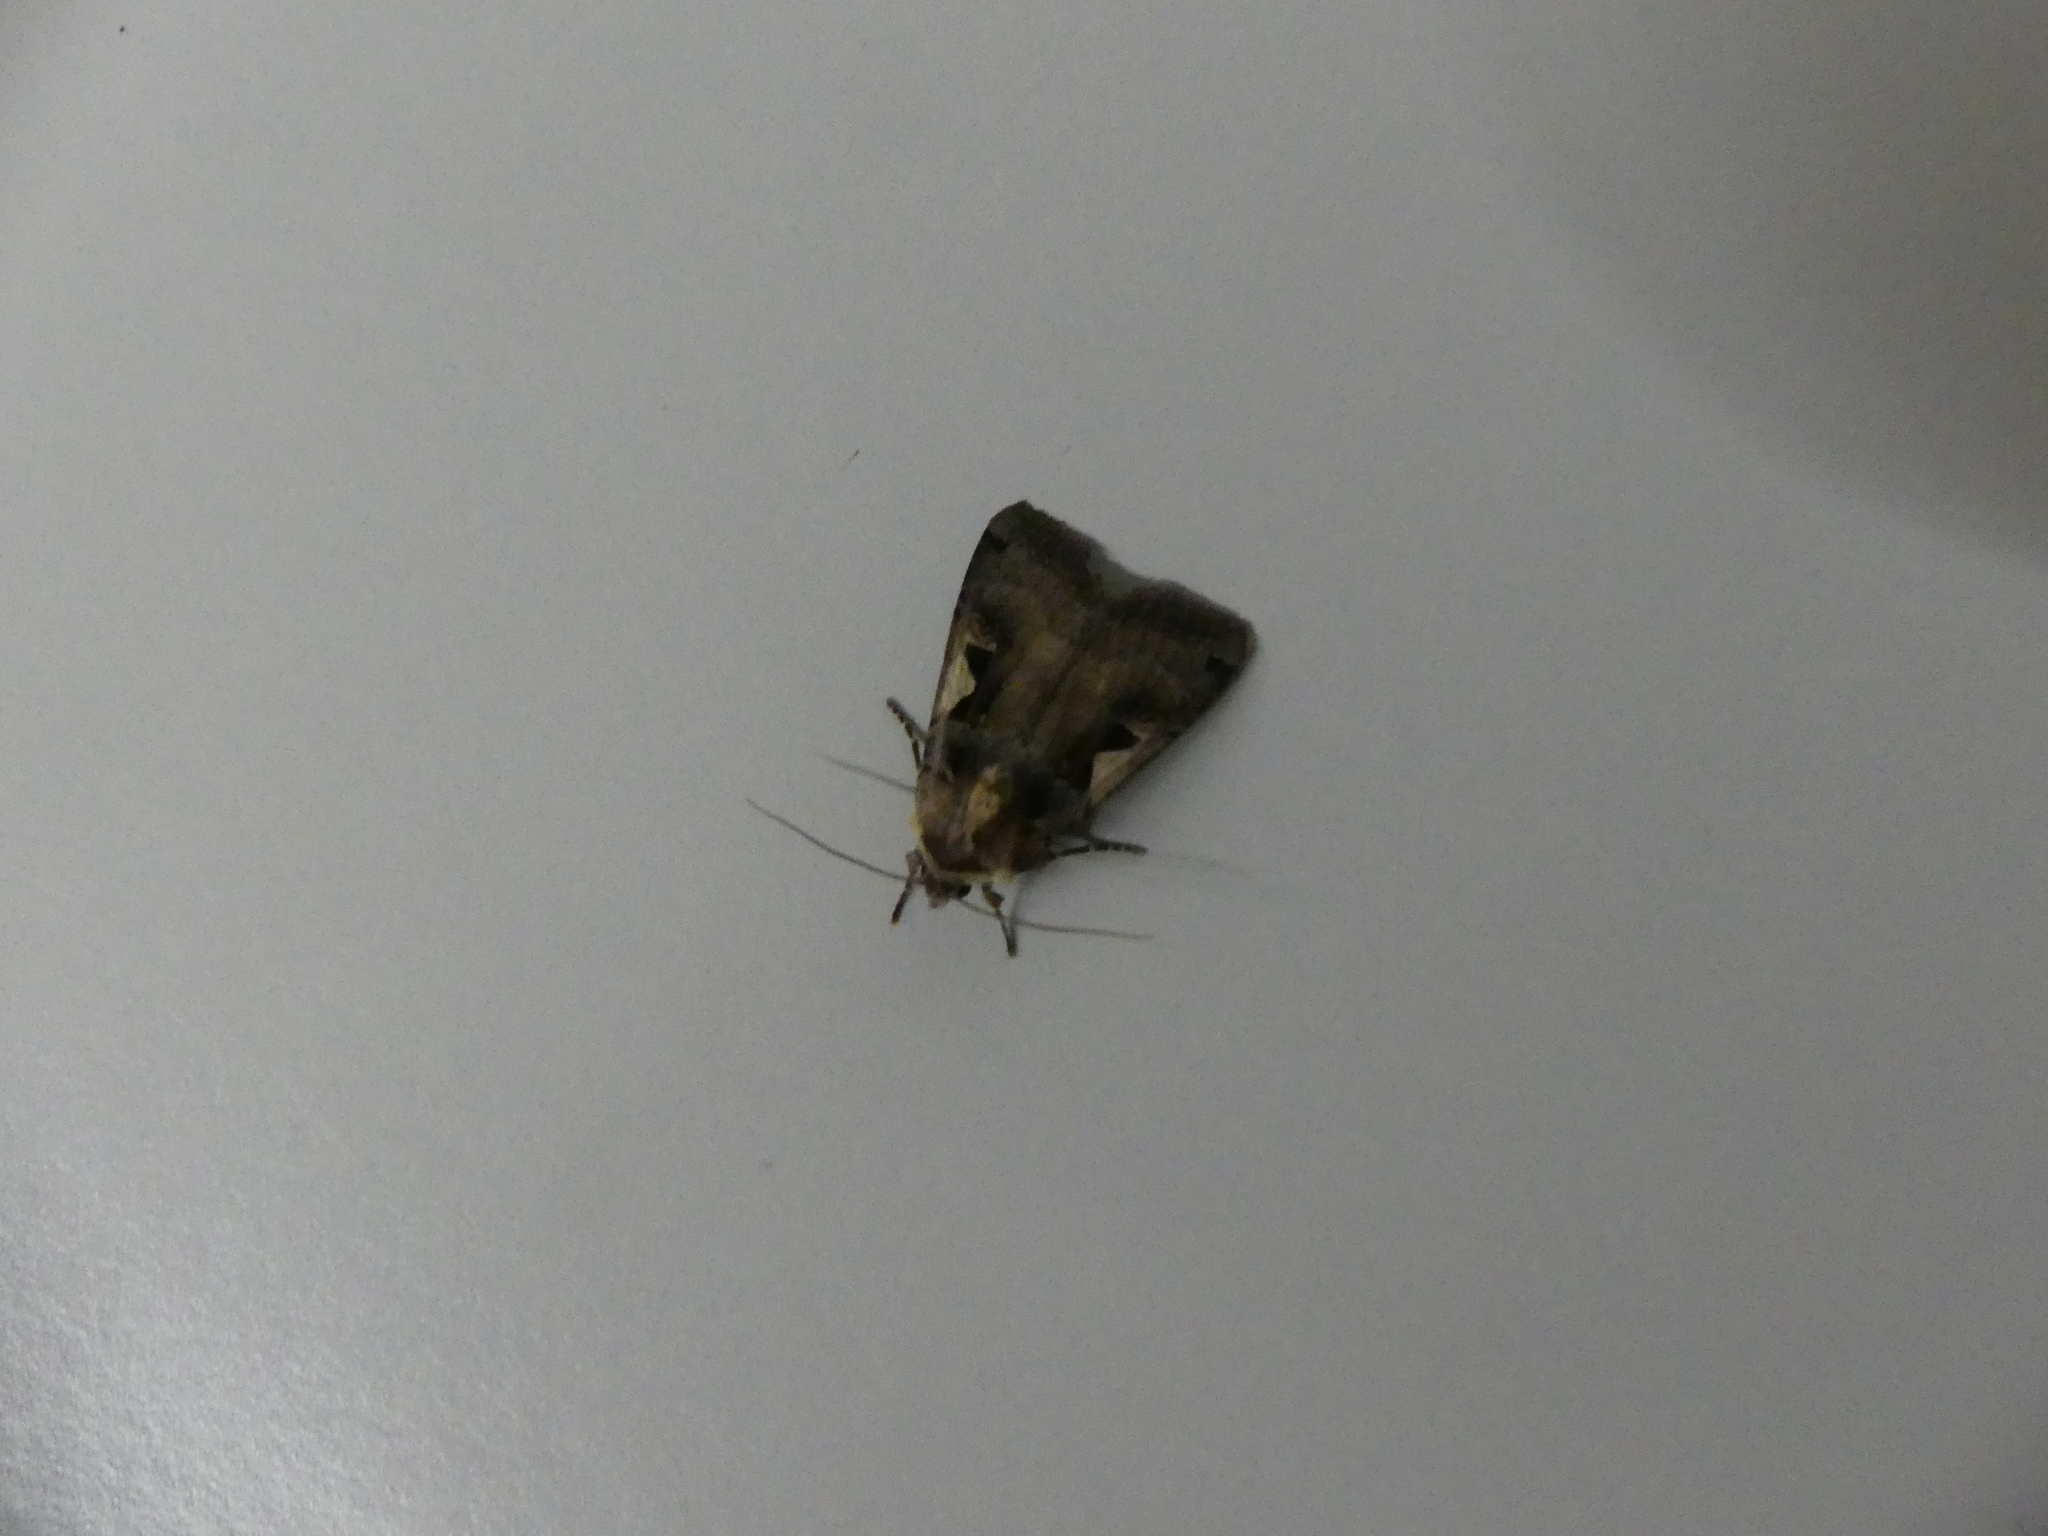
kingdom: Animalia
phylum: Arthropoda
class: Insecta
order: Lepidoptera
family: Noctuidae
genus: Xestia
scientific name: Xestia c-nigrum
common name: Setaceous hebrew character
